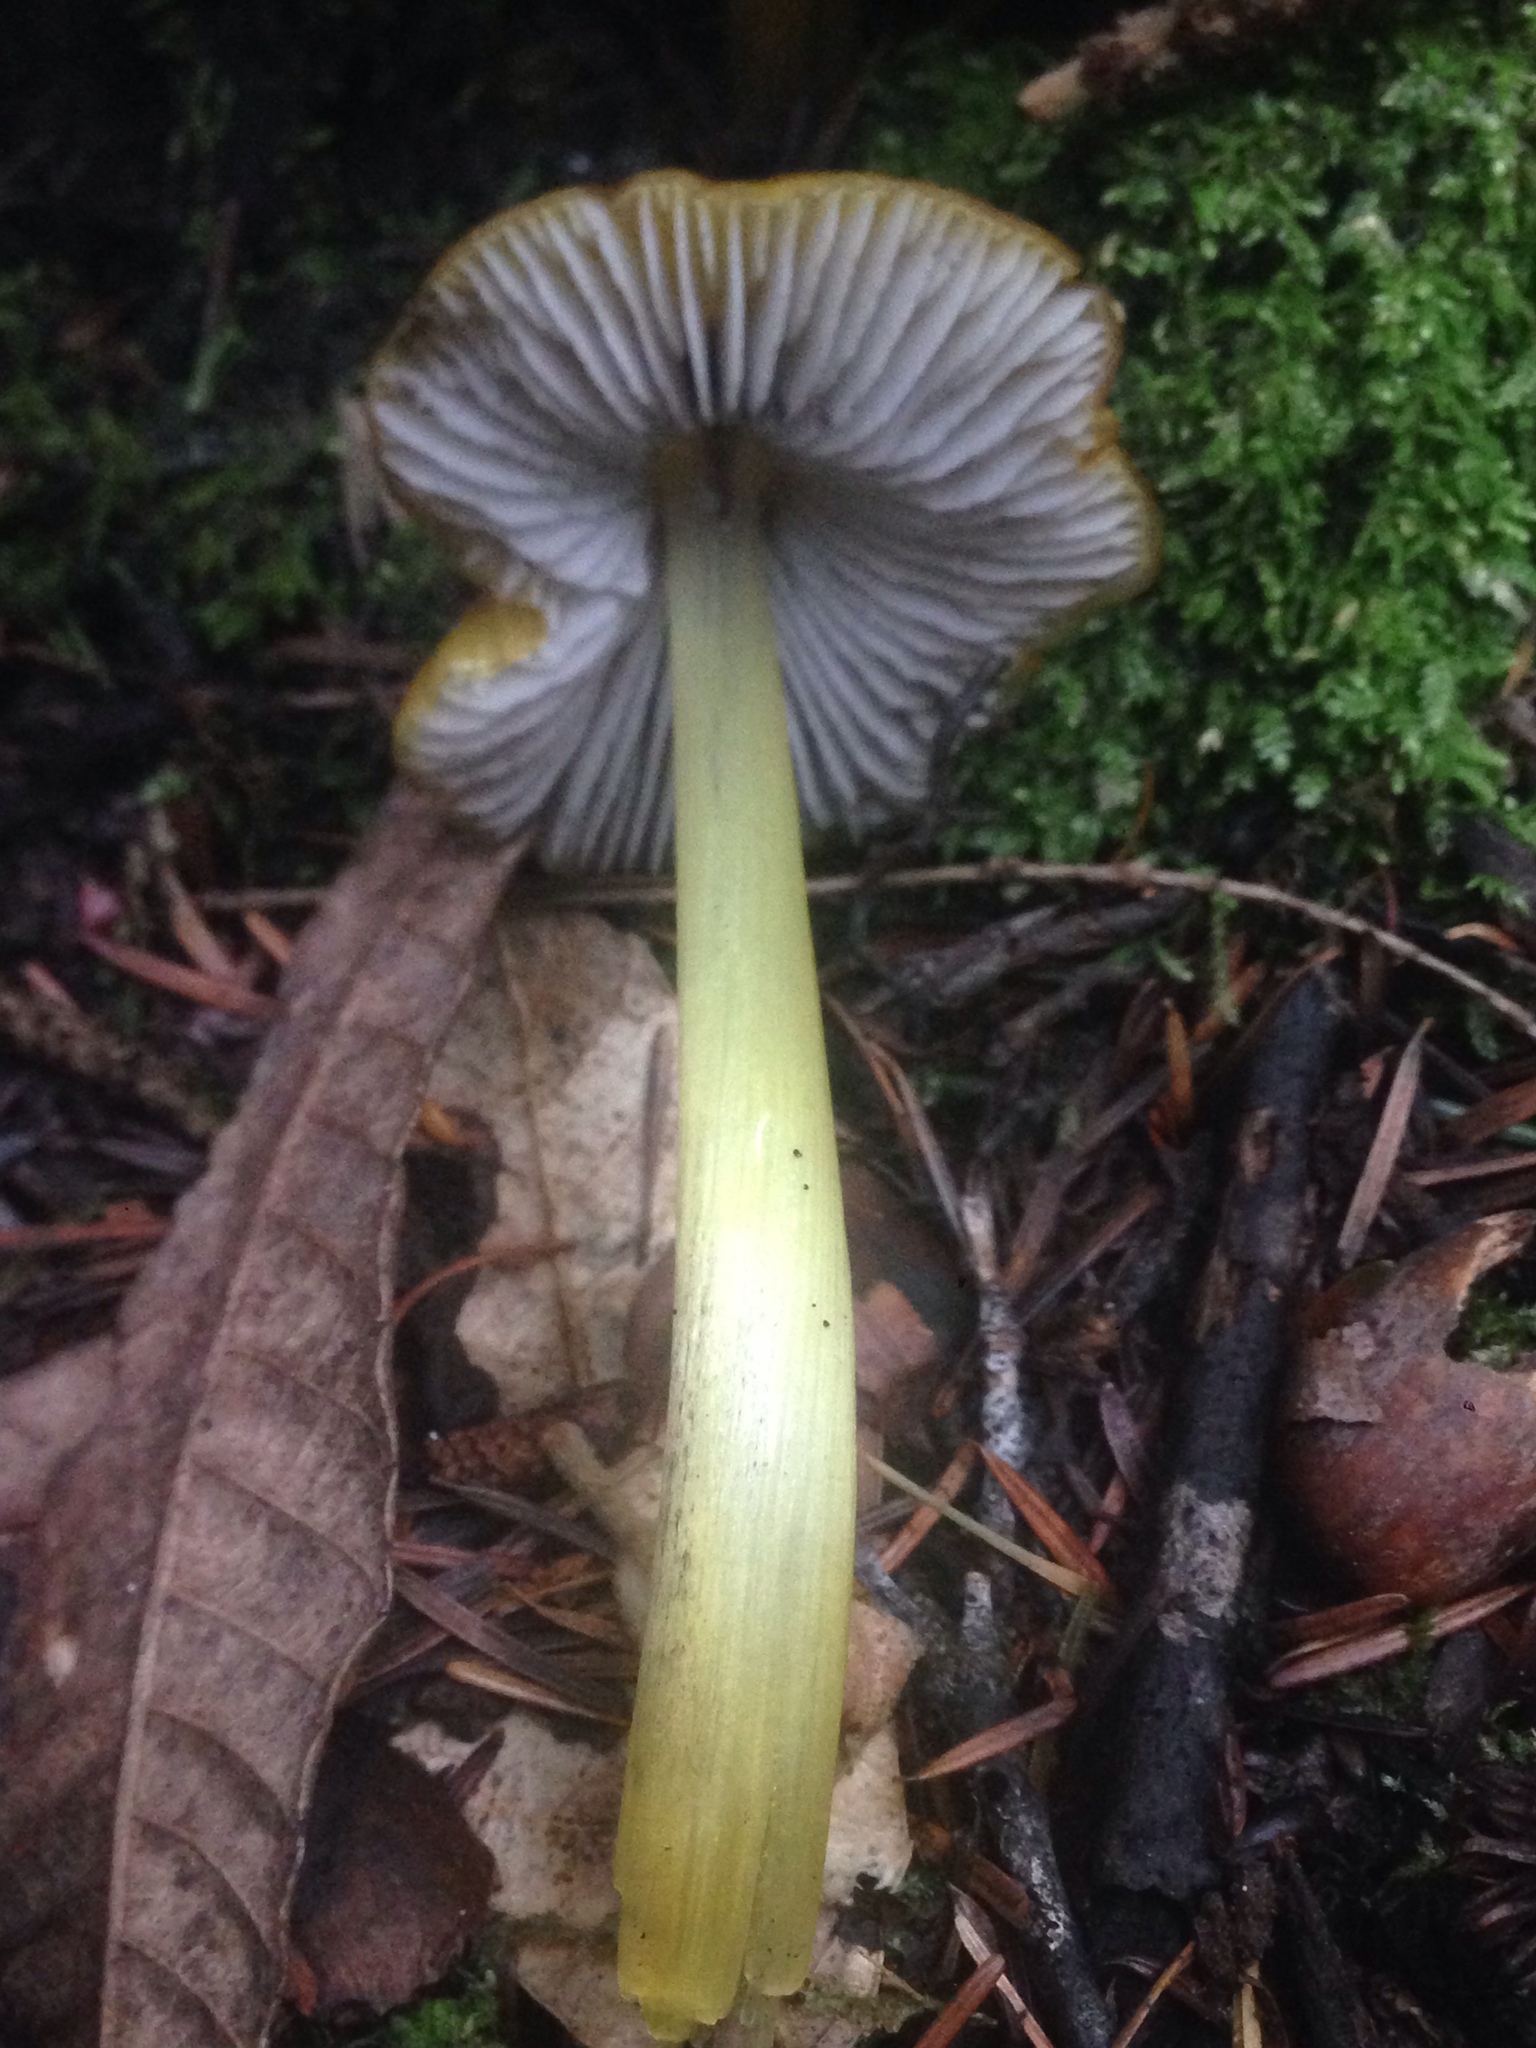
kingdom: Fungi
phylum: Basidiomycota
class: Agaricomycetes
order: Agaricales
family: Hygrophoraceae
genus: Hygrocybe
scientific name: Hygrocybe singeri
